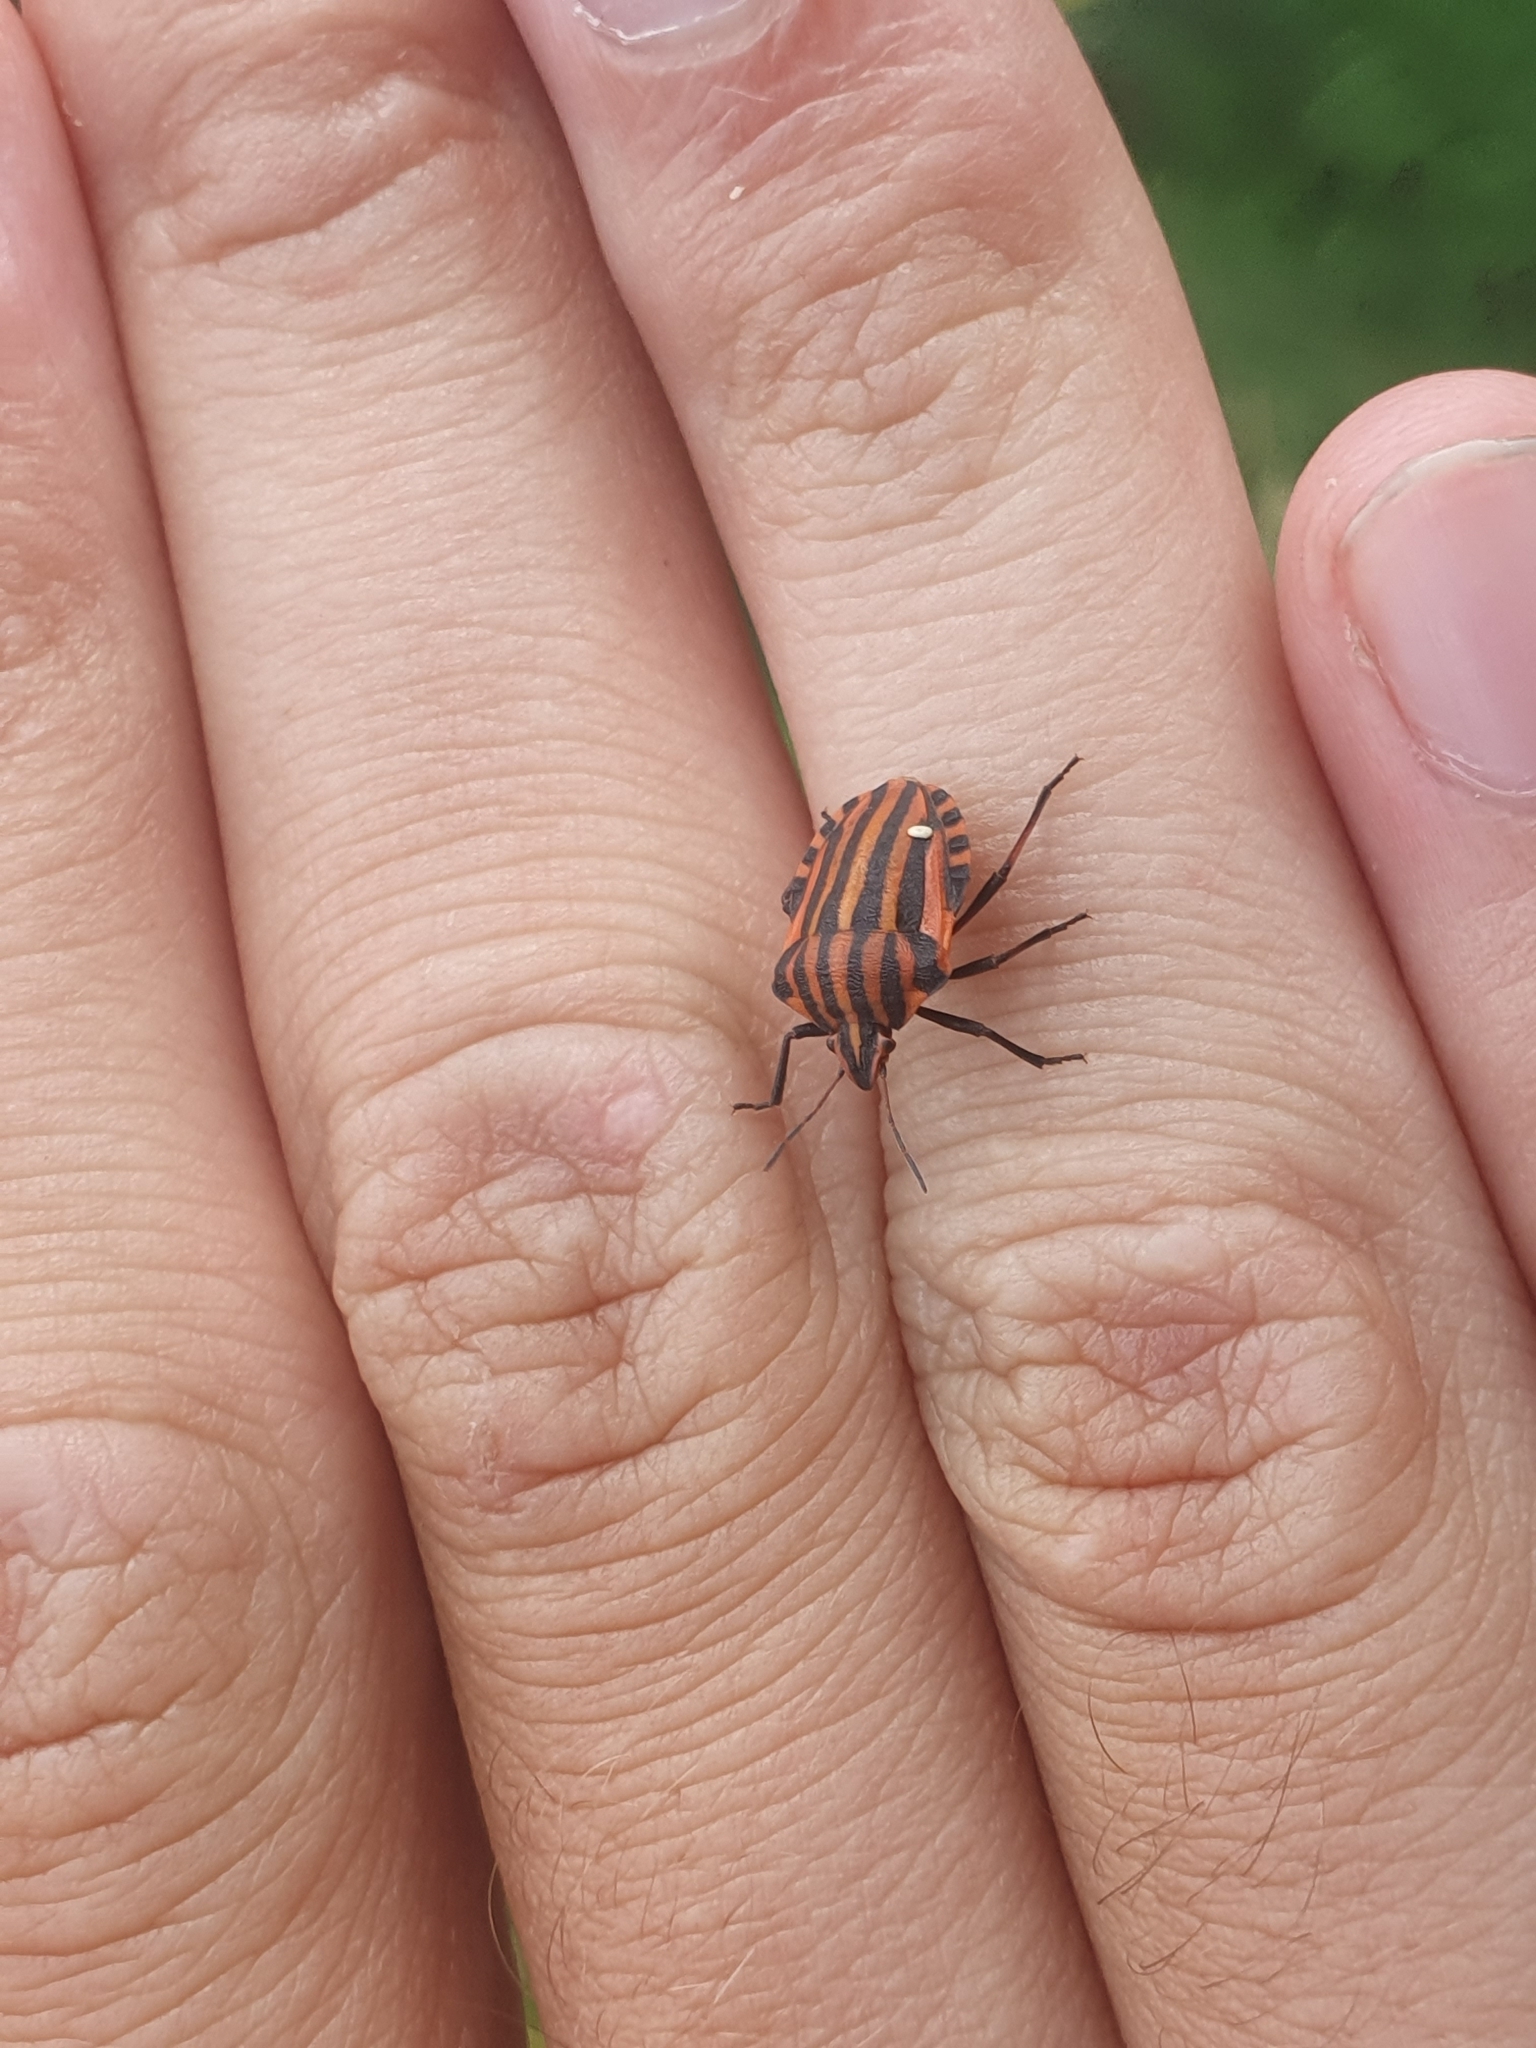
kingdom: Animalia
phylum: Arthropoda
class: Insecta
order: Hemiptera
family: Pentatomidae
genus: Graphosoma
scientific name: Graphosoma italicum
